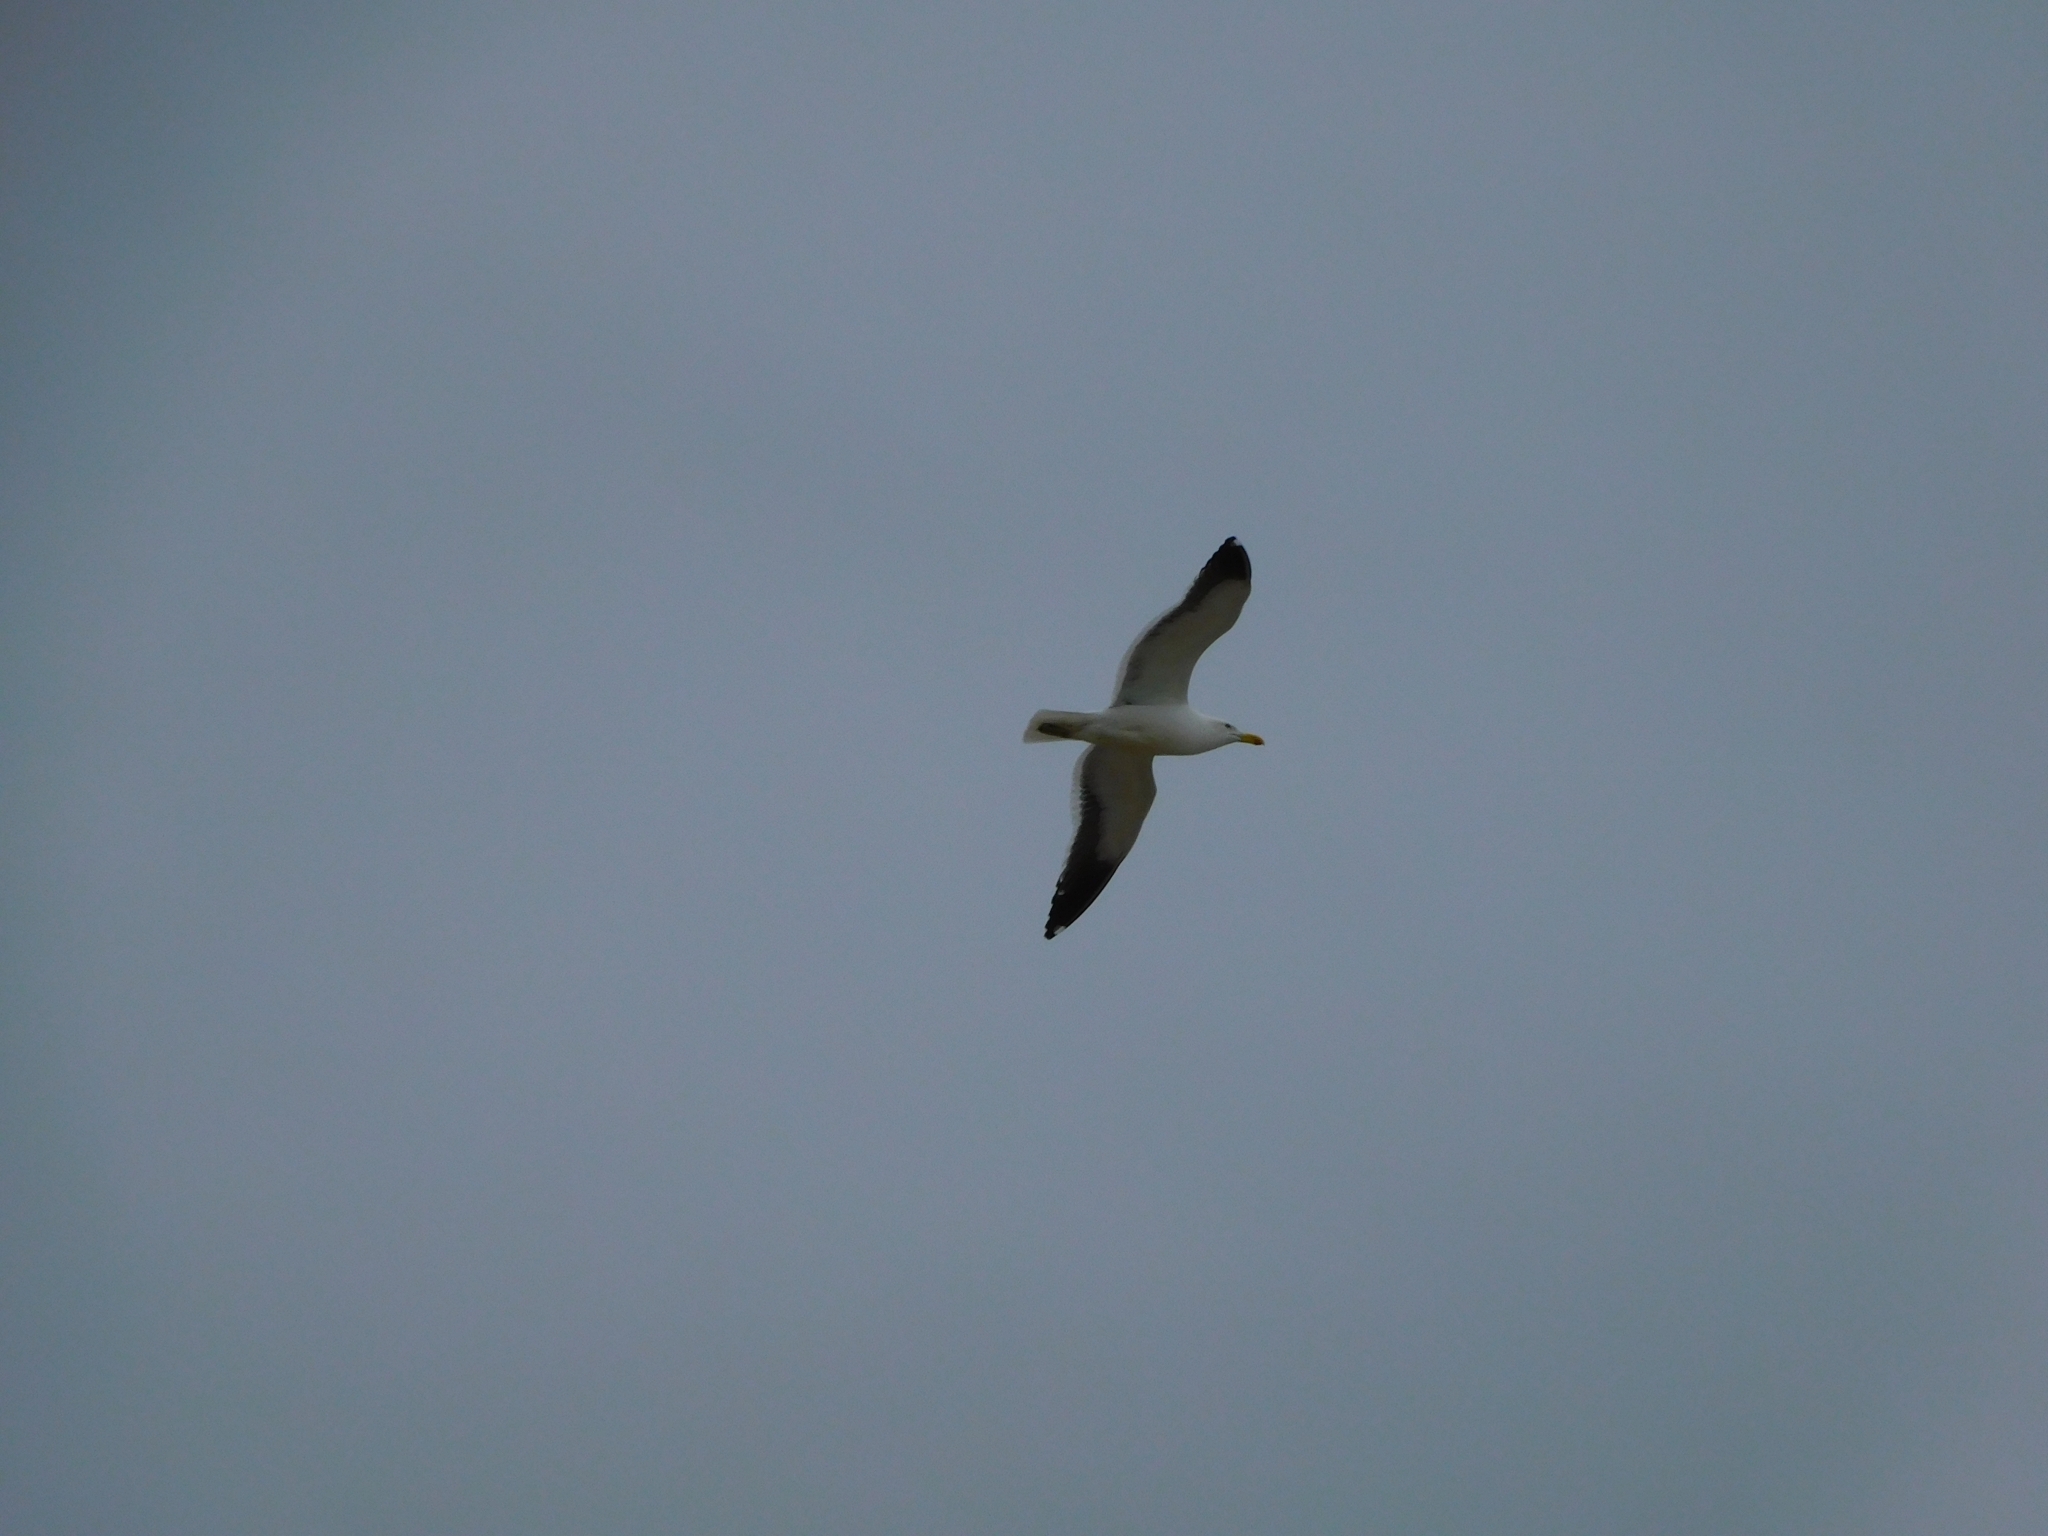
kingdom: Animalia
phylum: Chordata
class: Aves
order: Charadriiformes
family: Laridae
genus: Larus
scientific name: Larus dominicanus
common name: Kelp gull
